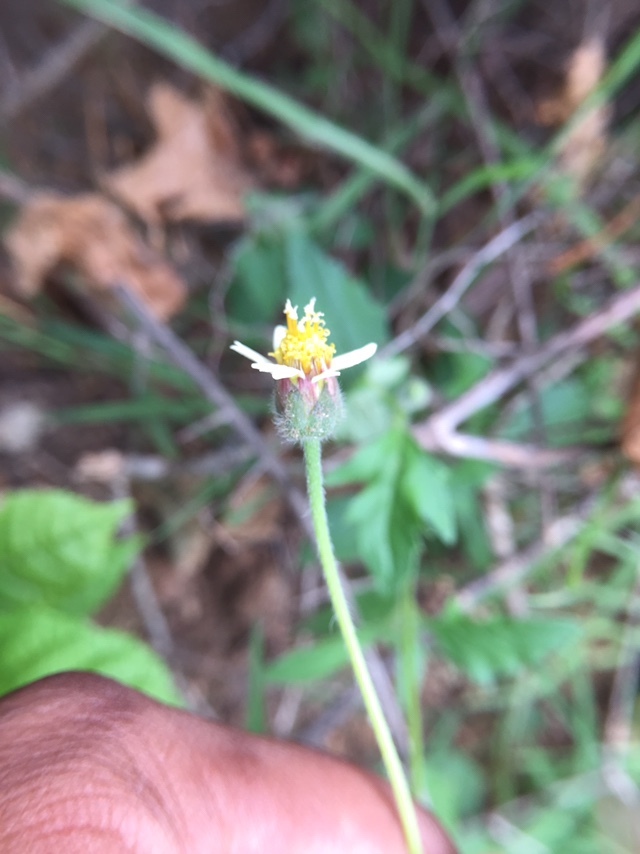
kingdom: Plantae
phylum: Tracheophyta
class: Magnoliopsida
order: Asterales
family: Asteraceae
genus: Tridax
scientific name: Tridax procumbens
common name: Coatbuttons
